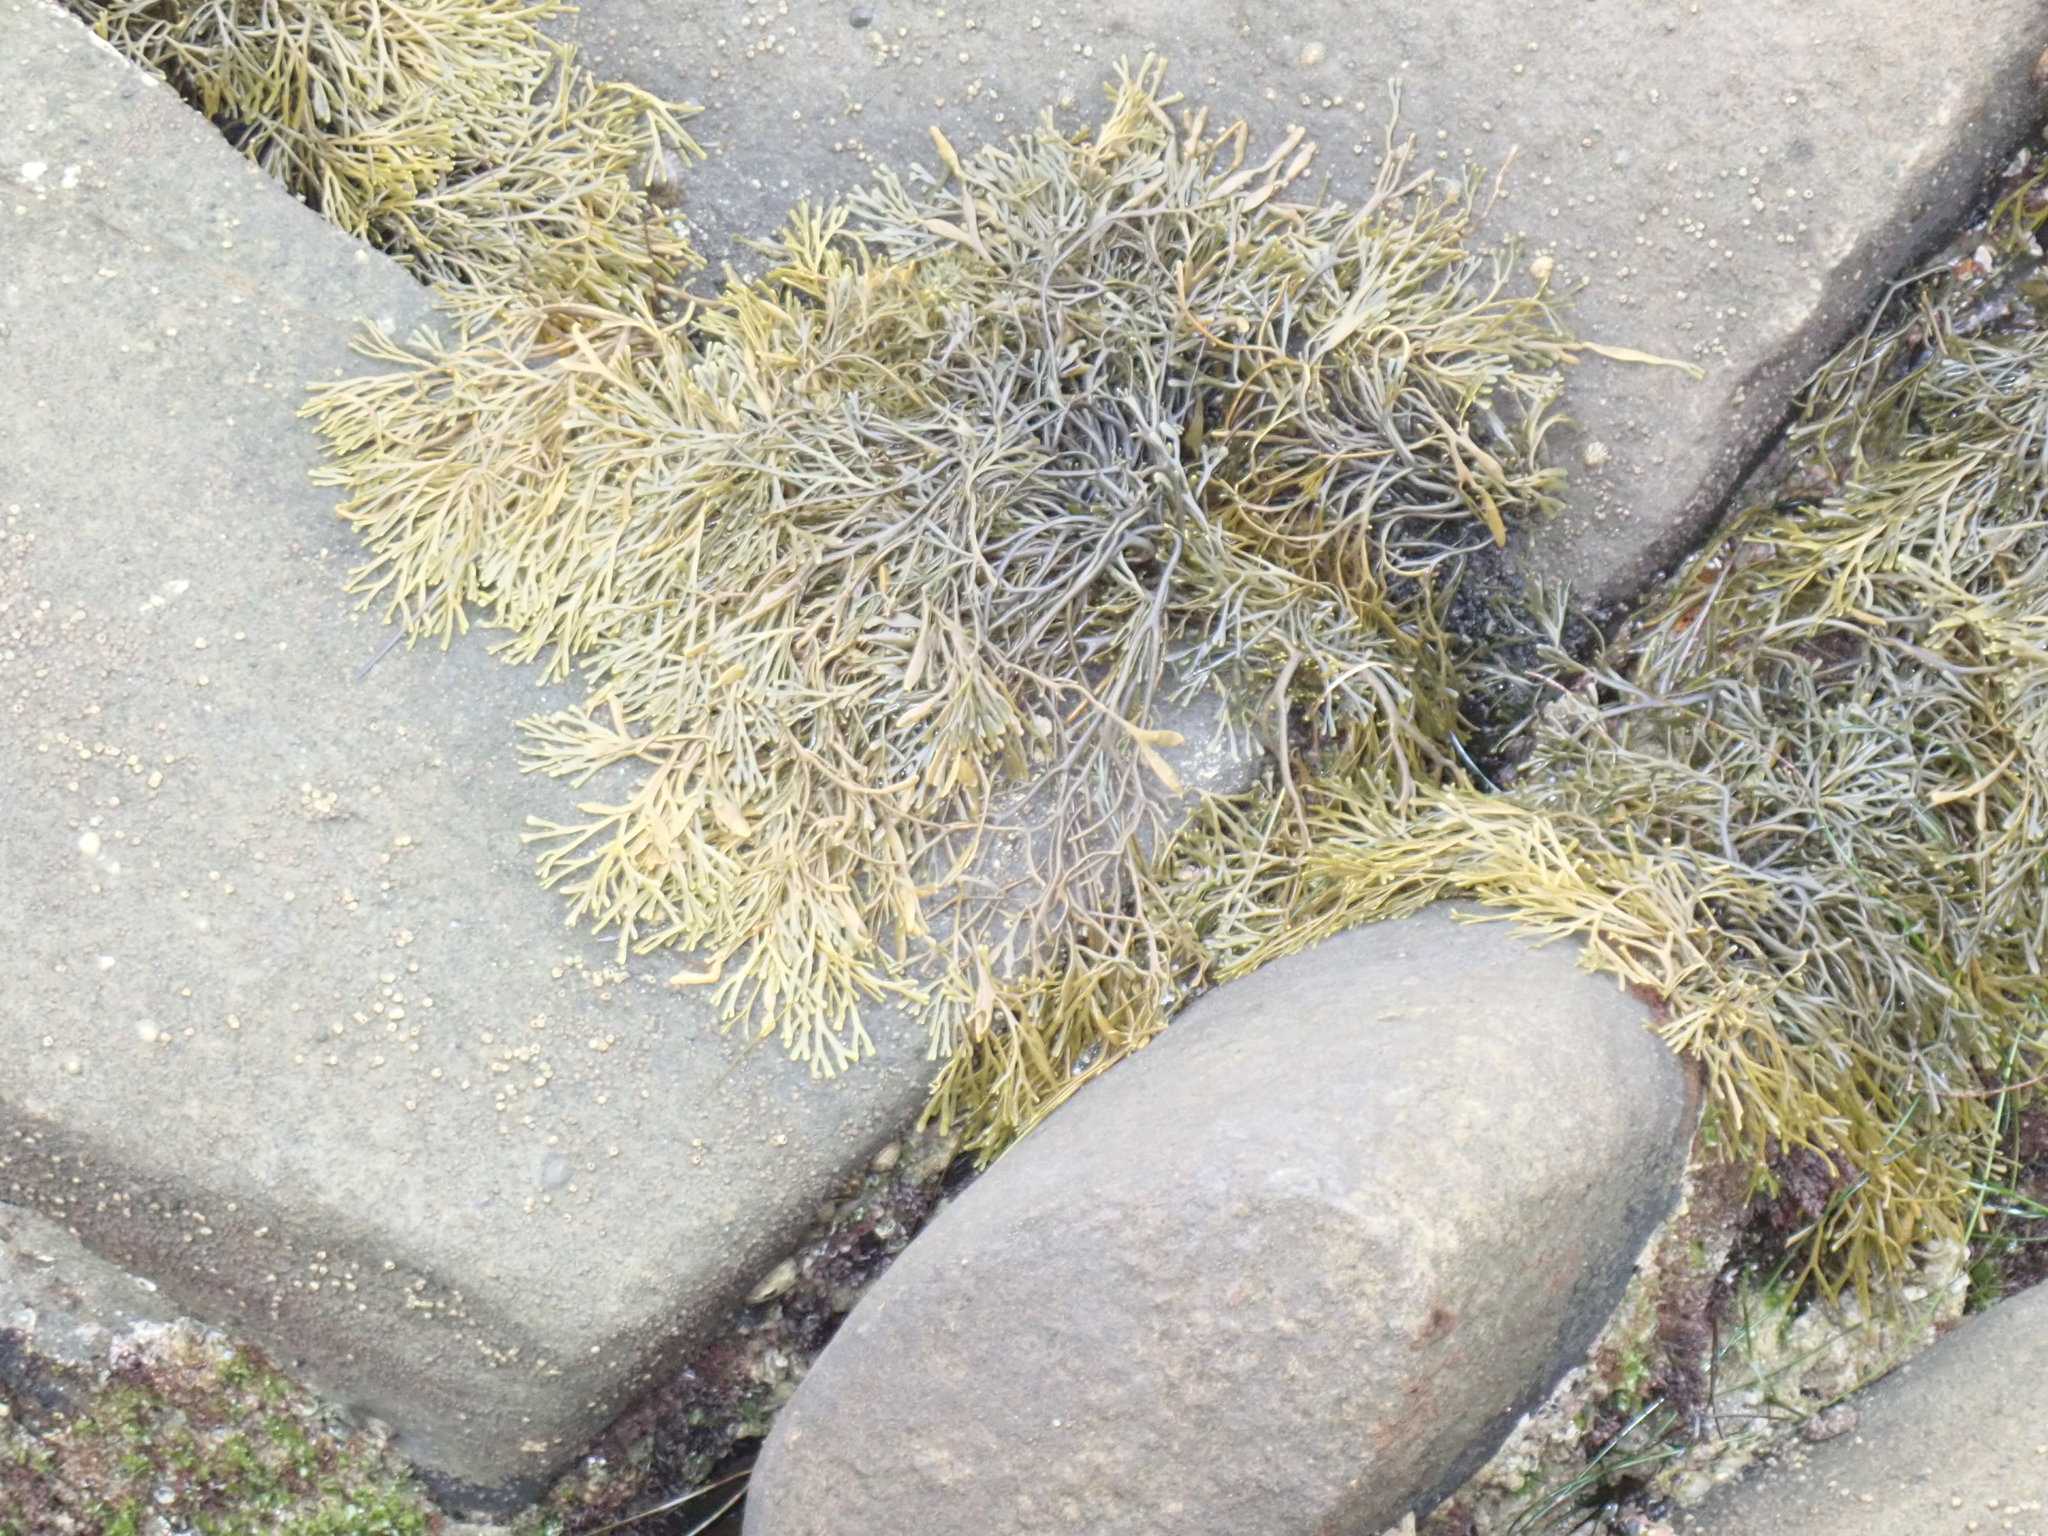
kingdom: Chromista
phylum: Ochrophyta
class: Phaeophyceae
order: Fucales
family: Fucaceae
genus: Silvetia
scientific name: Silvetia
